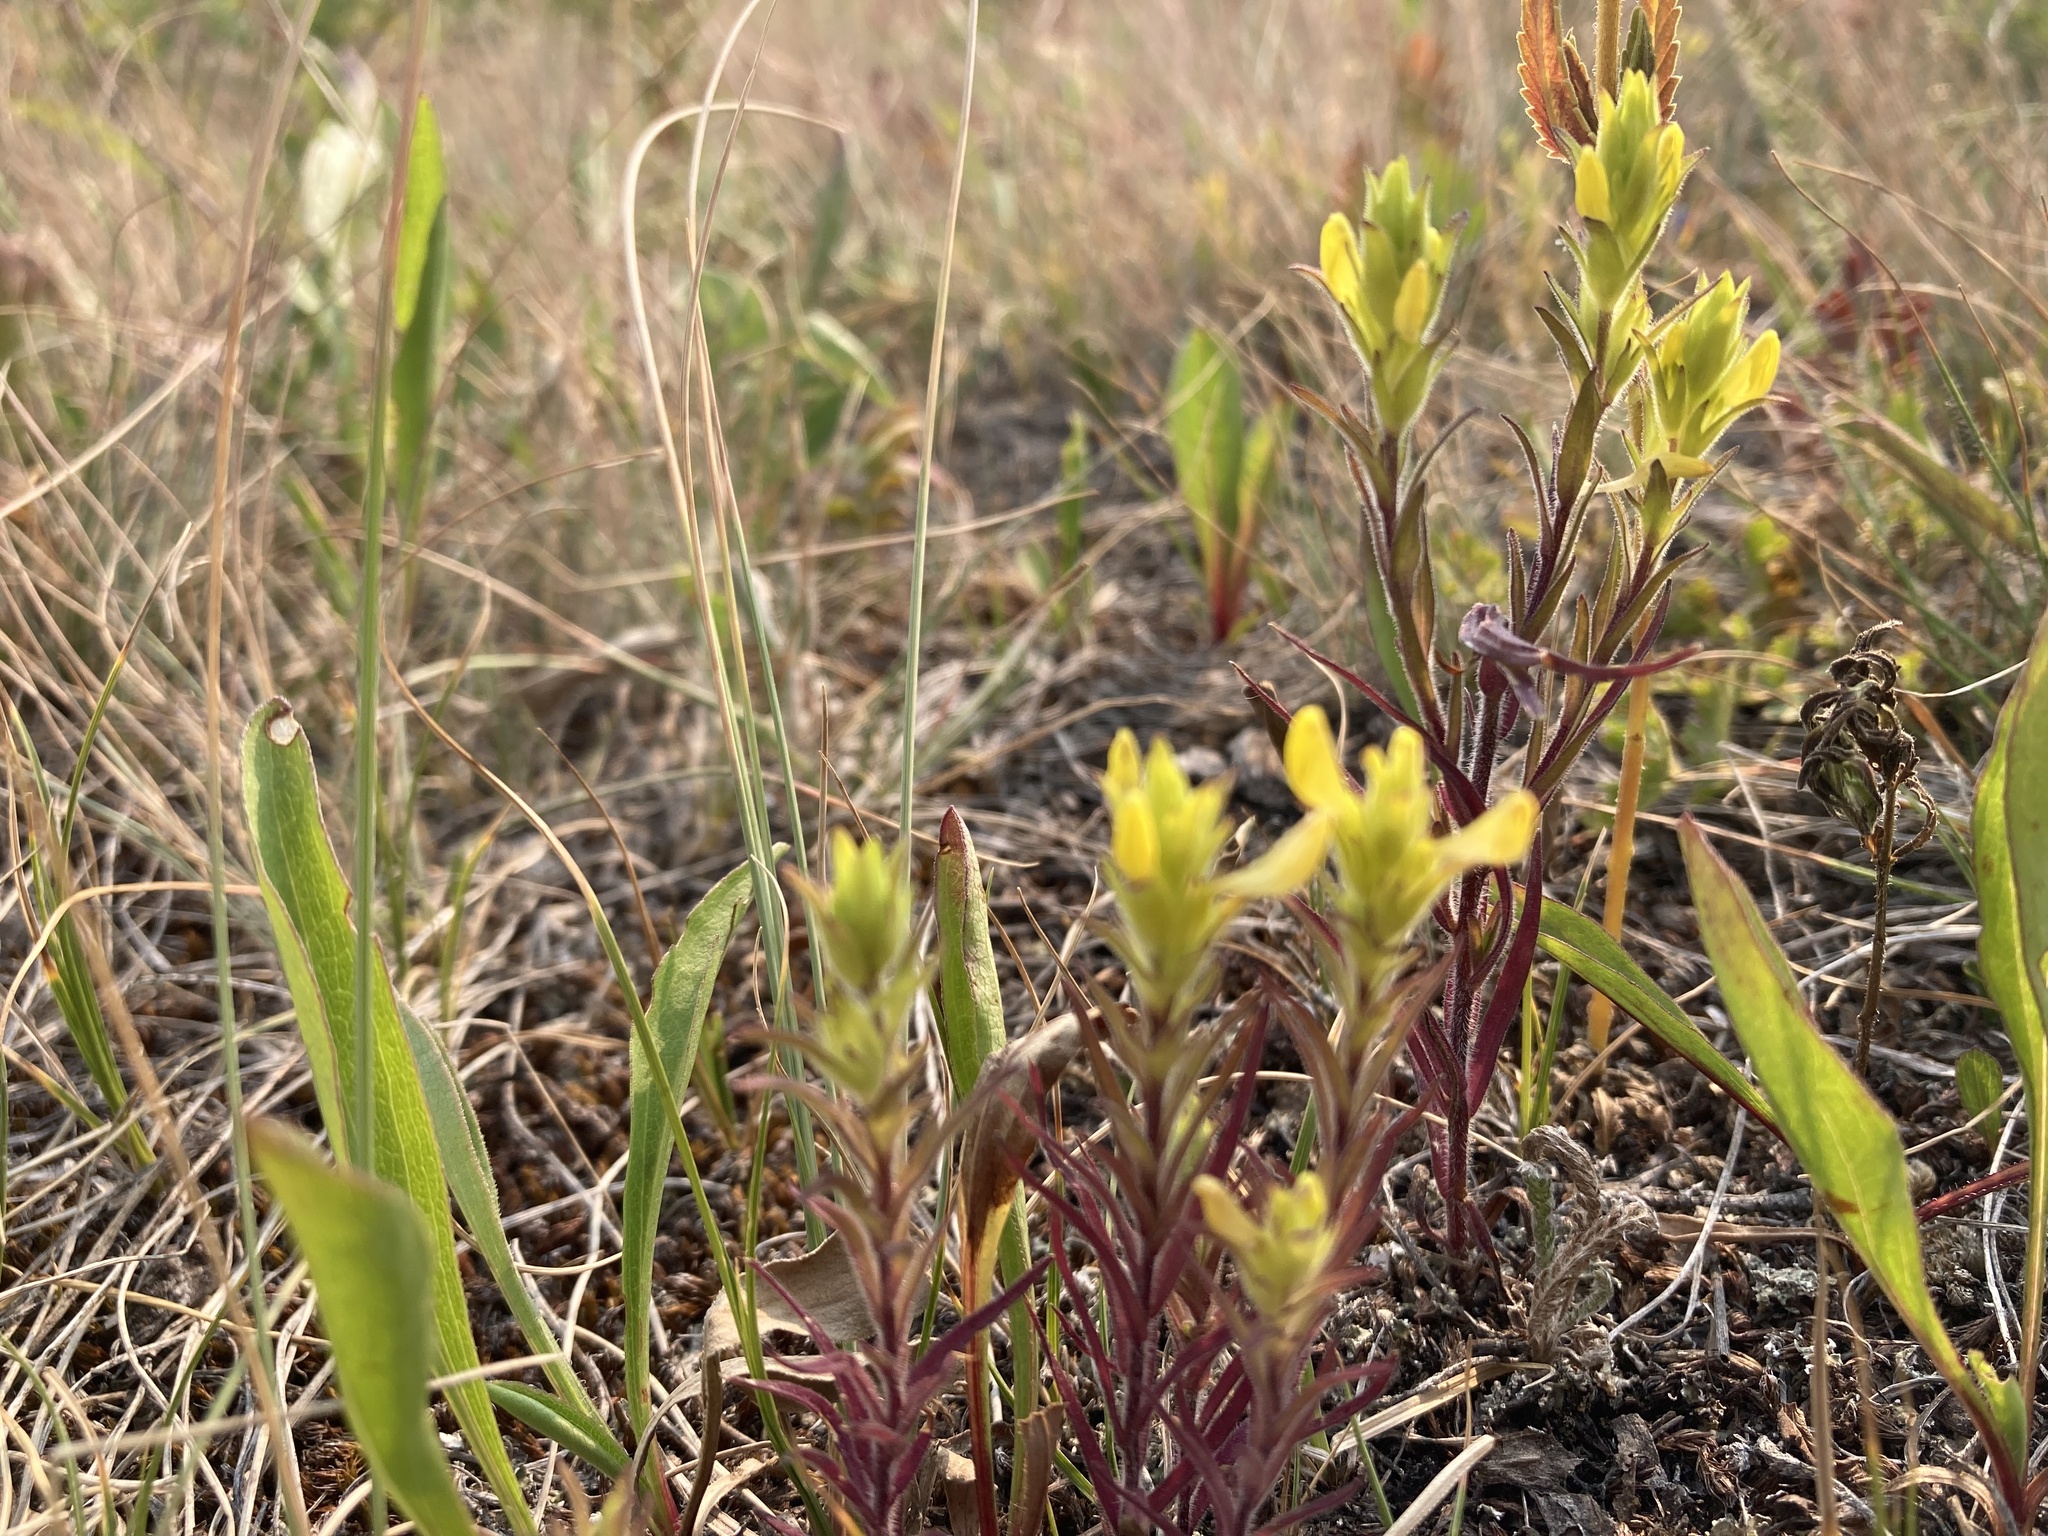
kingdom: Plantae
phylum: Tracheophyta
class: Magnoliopsida
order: Lamiales
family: Orobanchaceae
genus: Orthocarpus
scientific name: Orthocarpus luteus
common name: Golden-tongue owl's-clover
